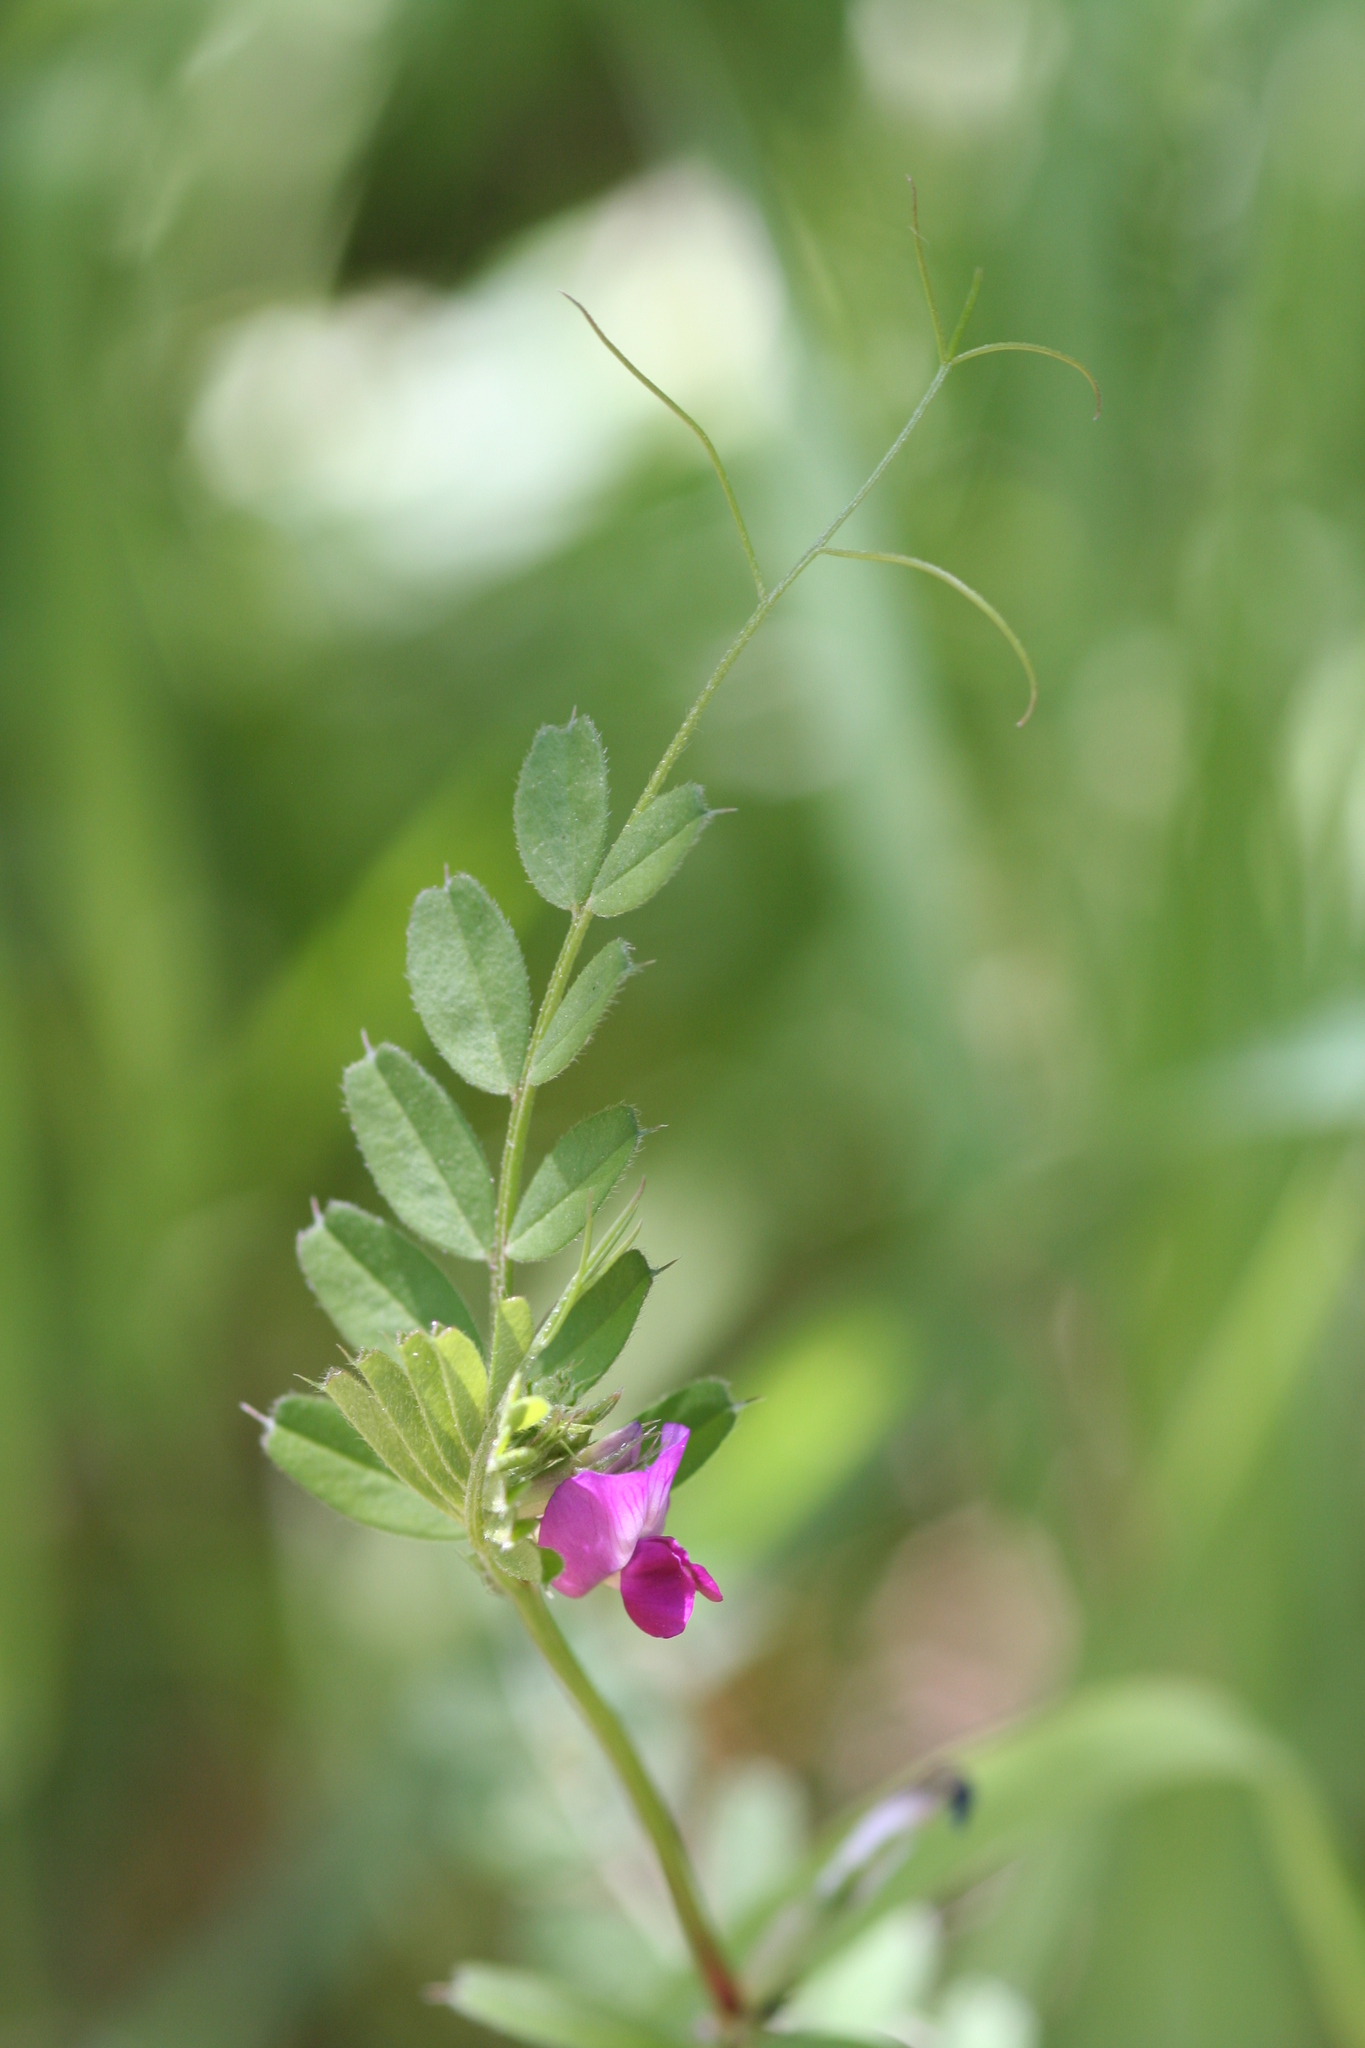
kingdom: Plantae
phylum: Tracheophyta
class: Magnoliopsida
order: Fabales
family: Fabaceae
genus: Vicia
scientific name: Vicia sativa
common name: Garden vetch
